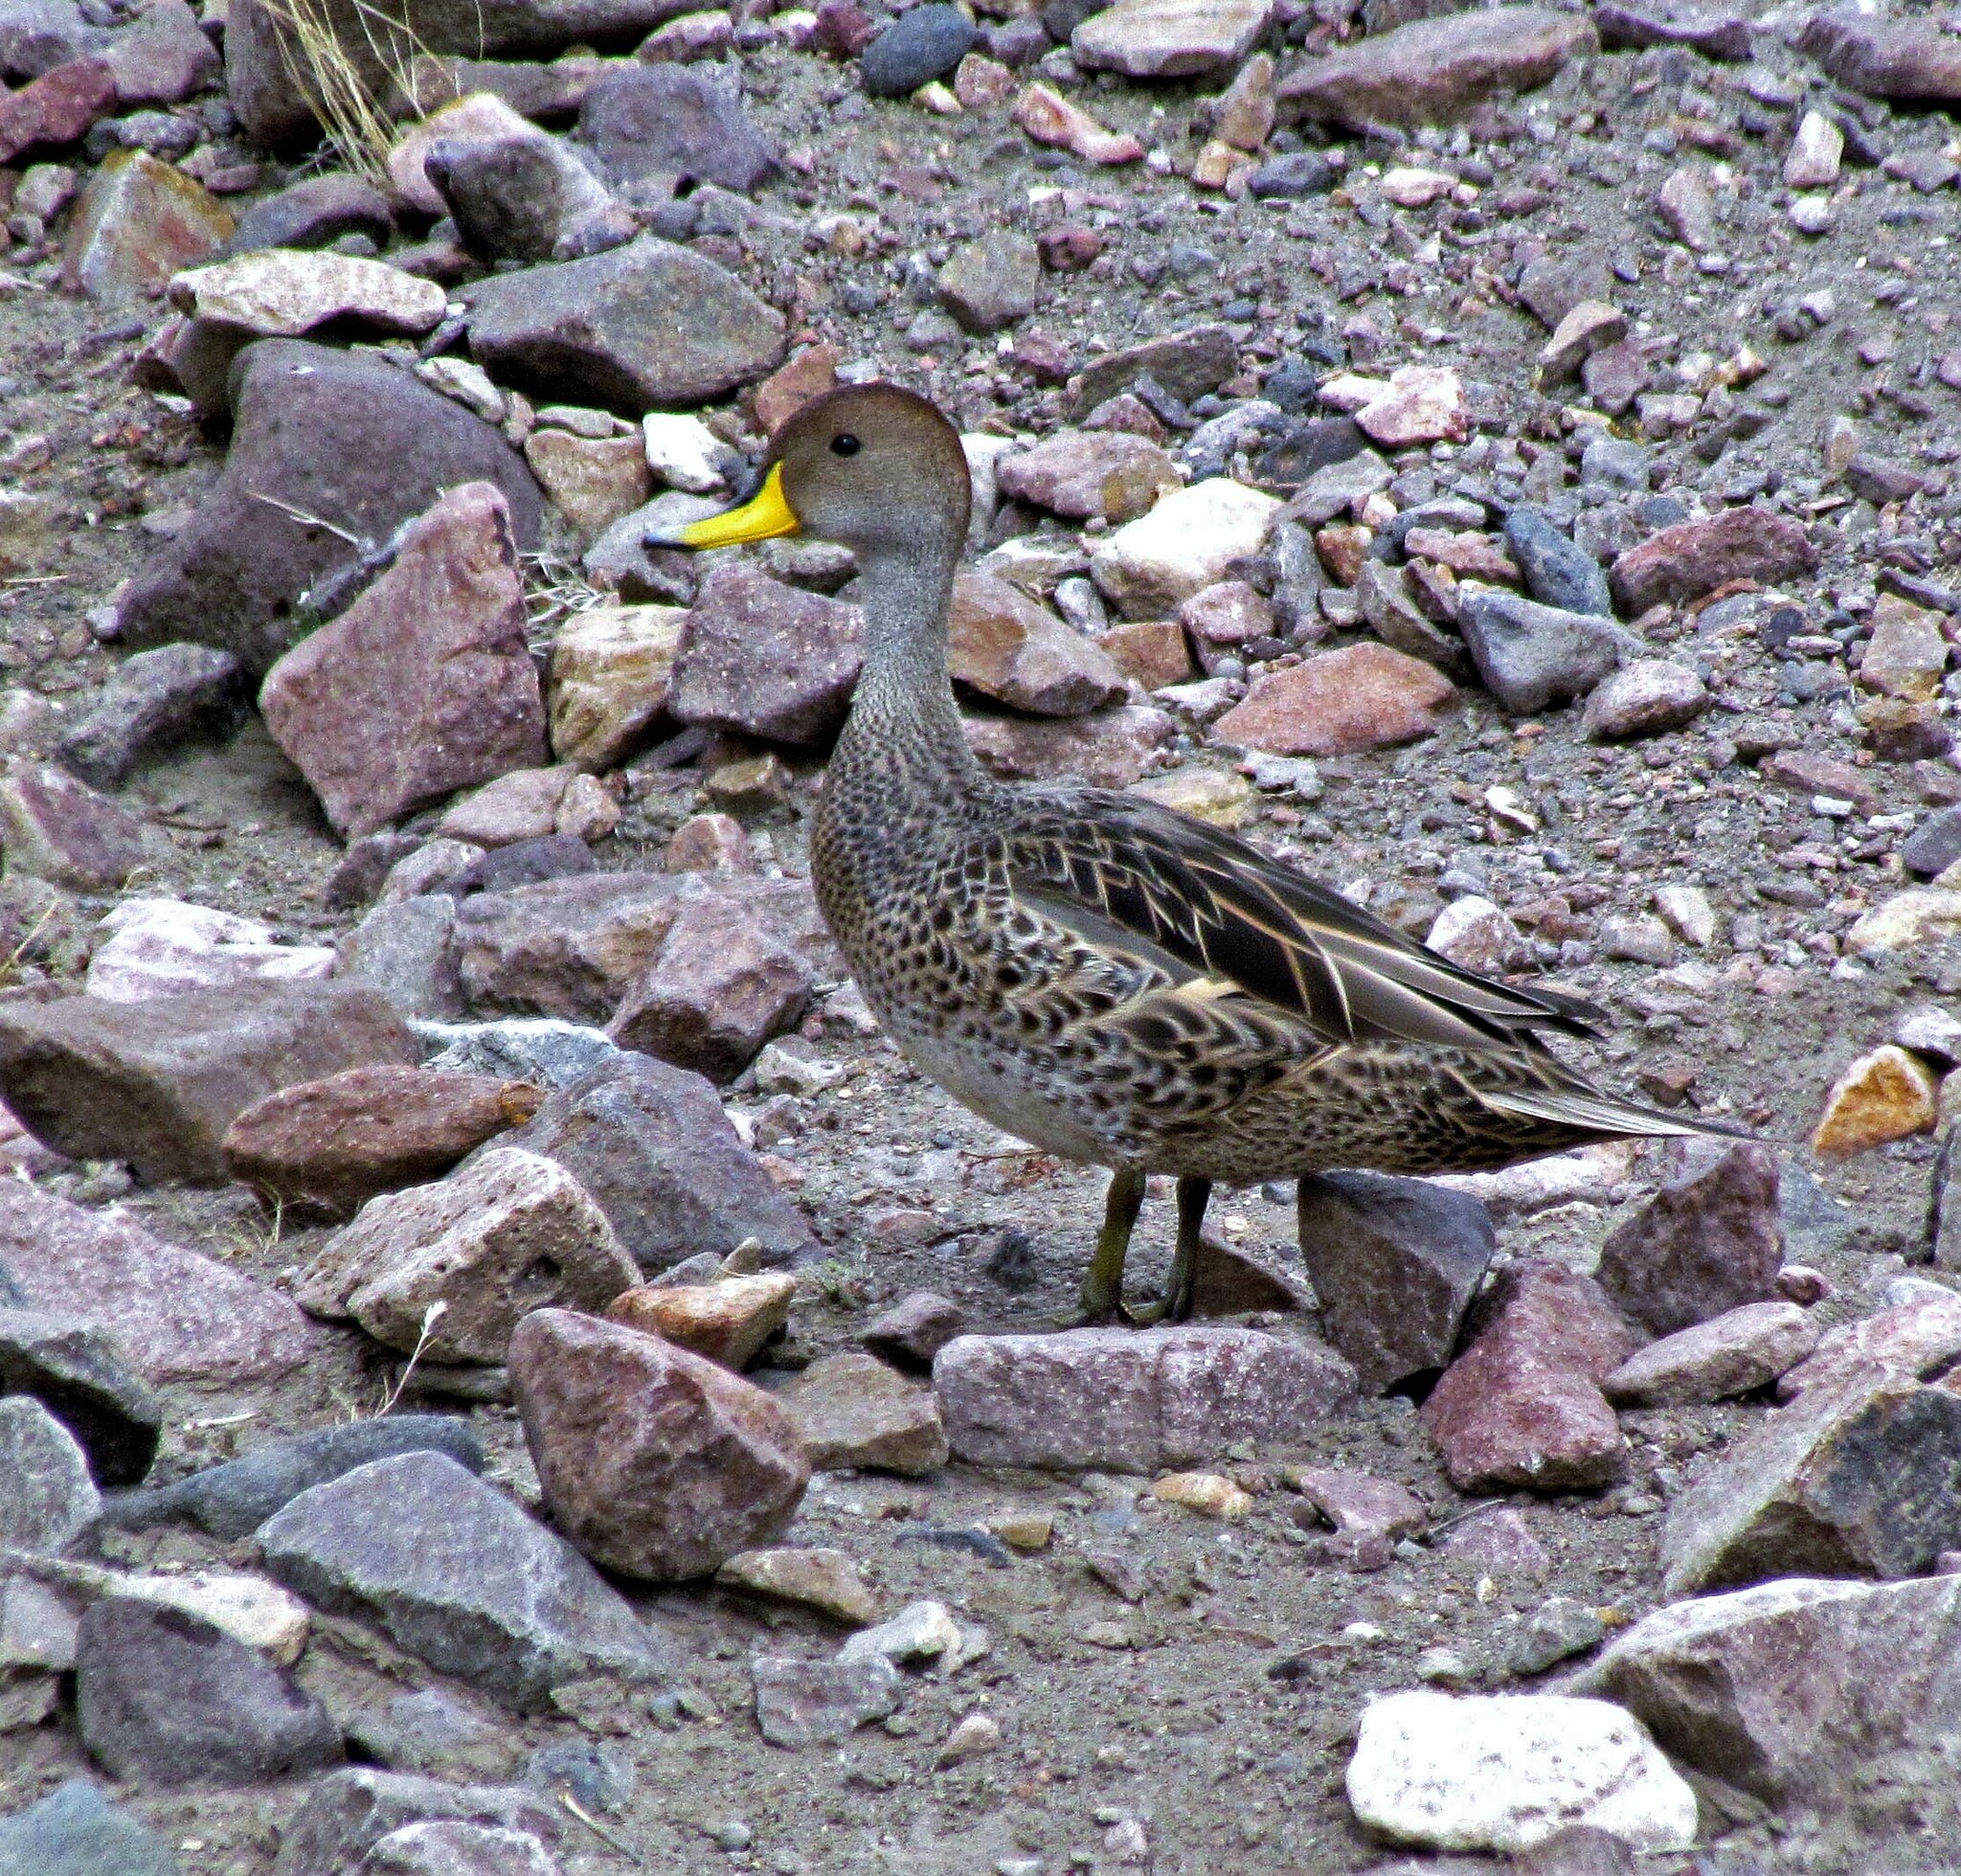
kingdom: Animalia
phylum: Chordata
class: Aves
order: Anseriformes
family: Anatidae
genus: Anas
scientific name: Anas georgica
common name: Yellow-billed pintail
